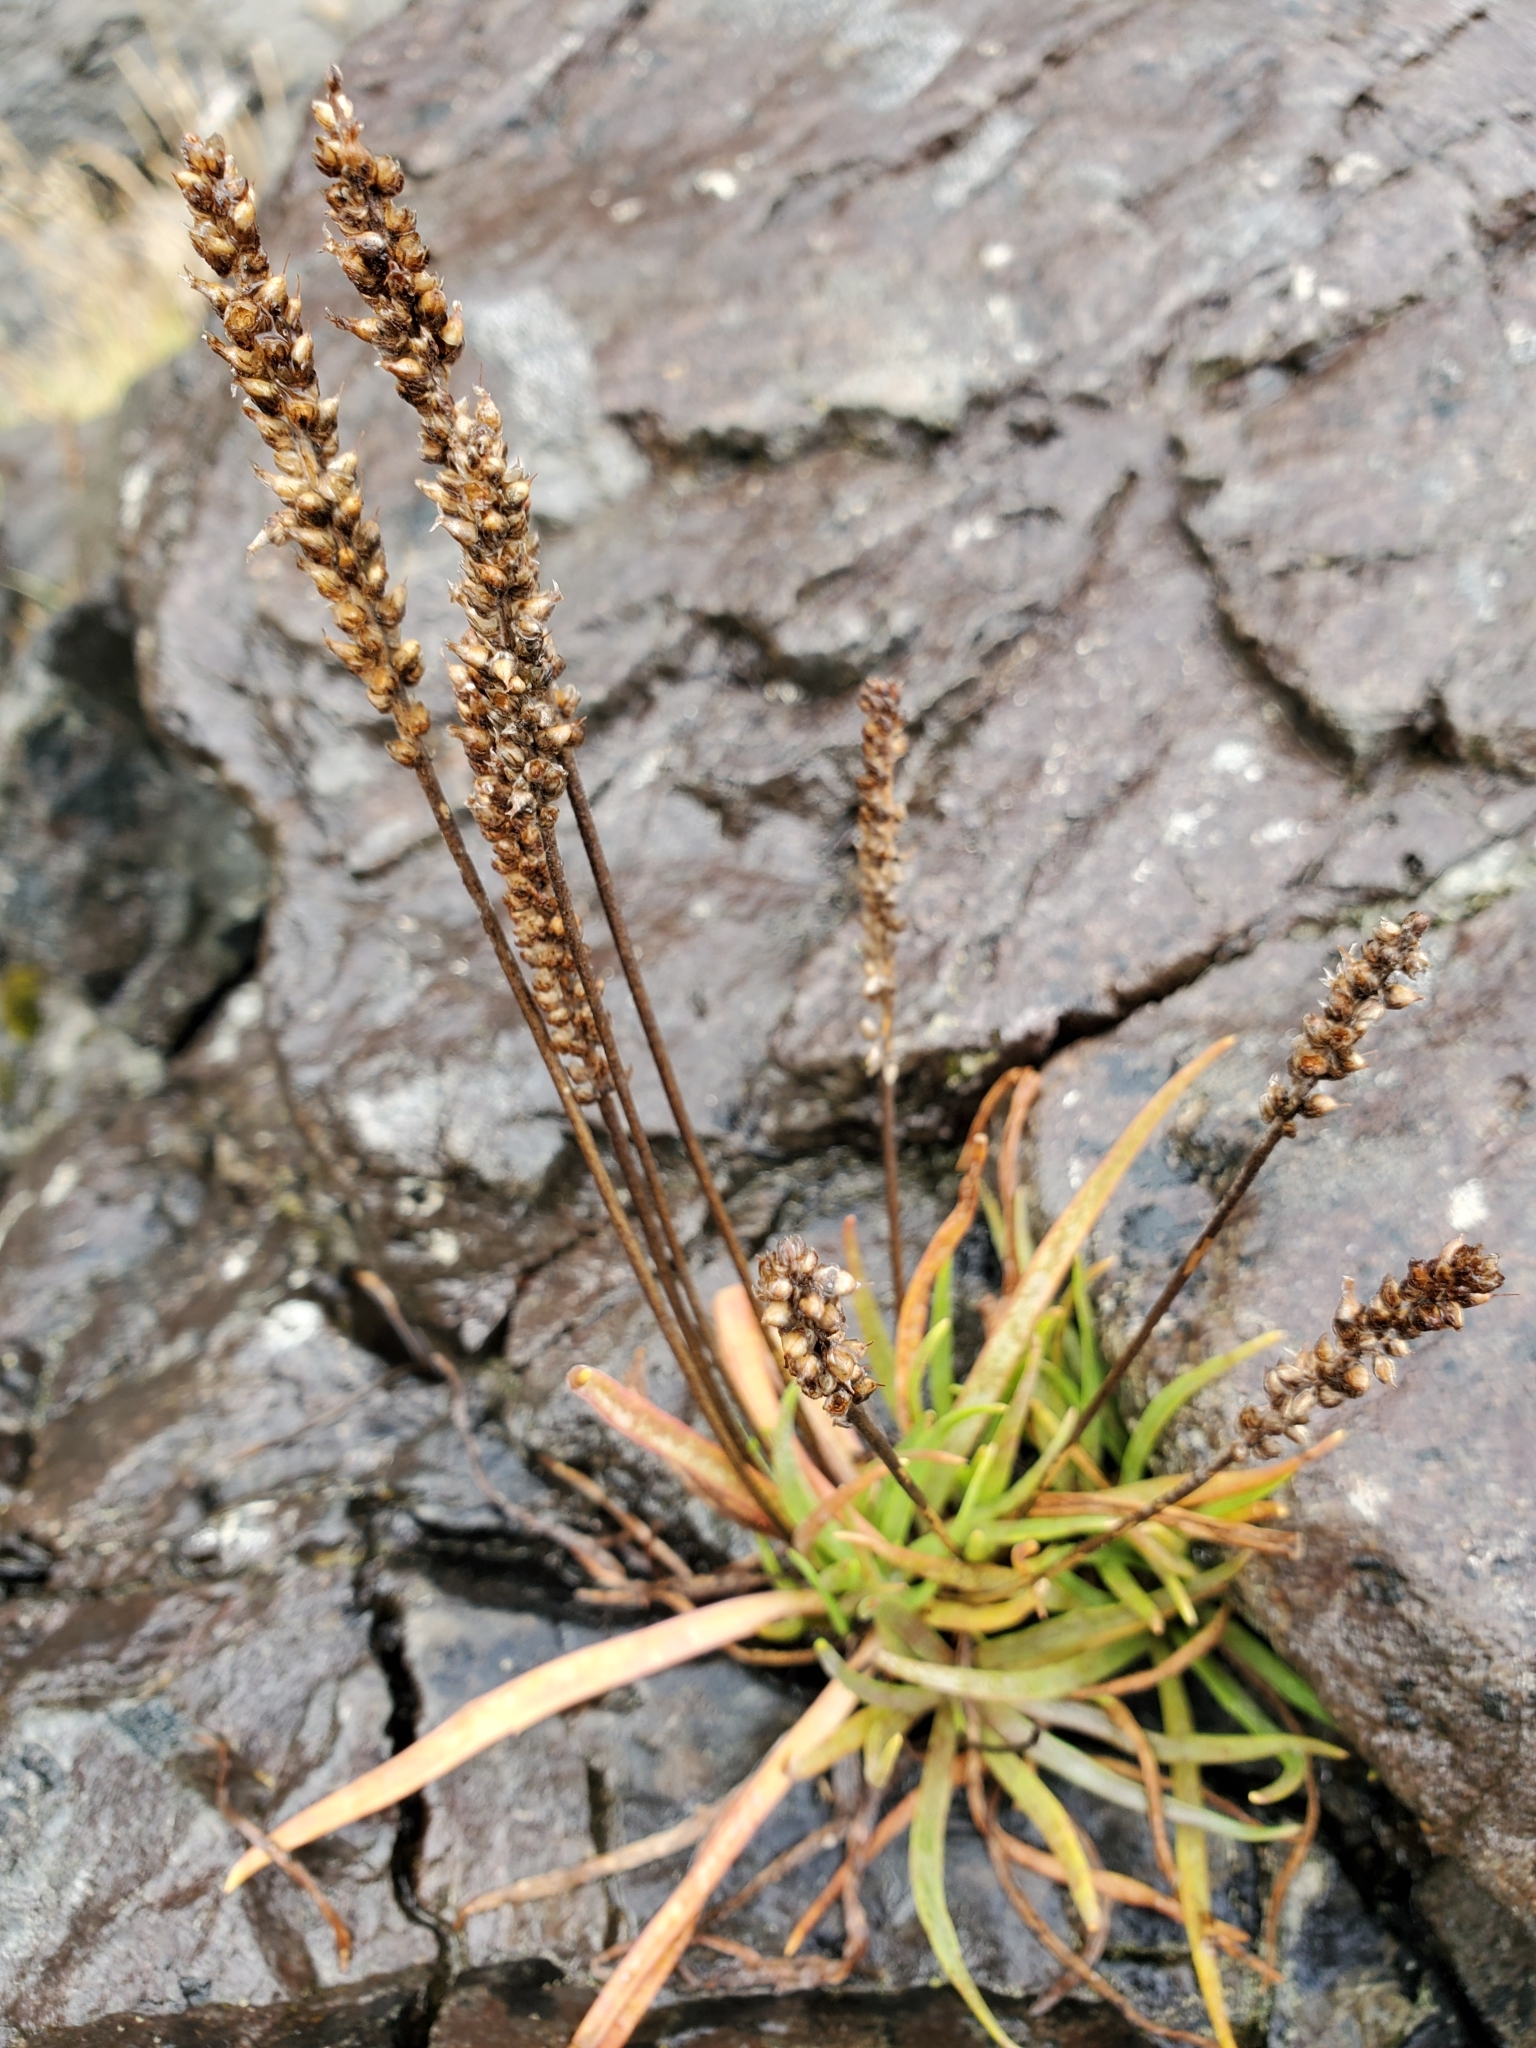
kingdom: Plantae
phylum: Tracheophyta
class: Magnoliopsida
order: Lamiales
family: Plantaginaceae
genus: Plantago
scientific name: Plantago maritima
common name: Sea plantain
